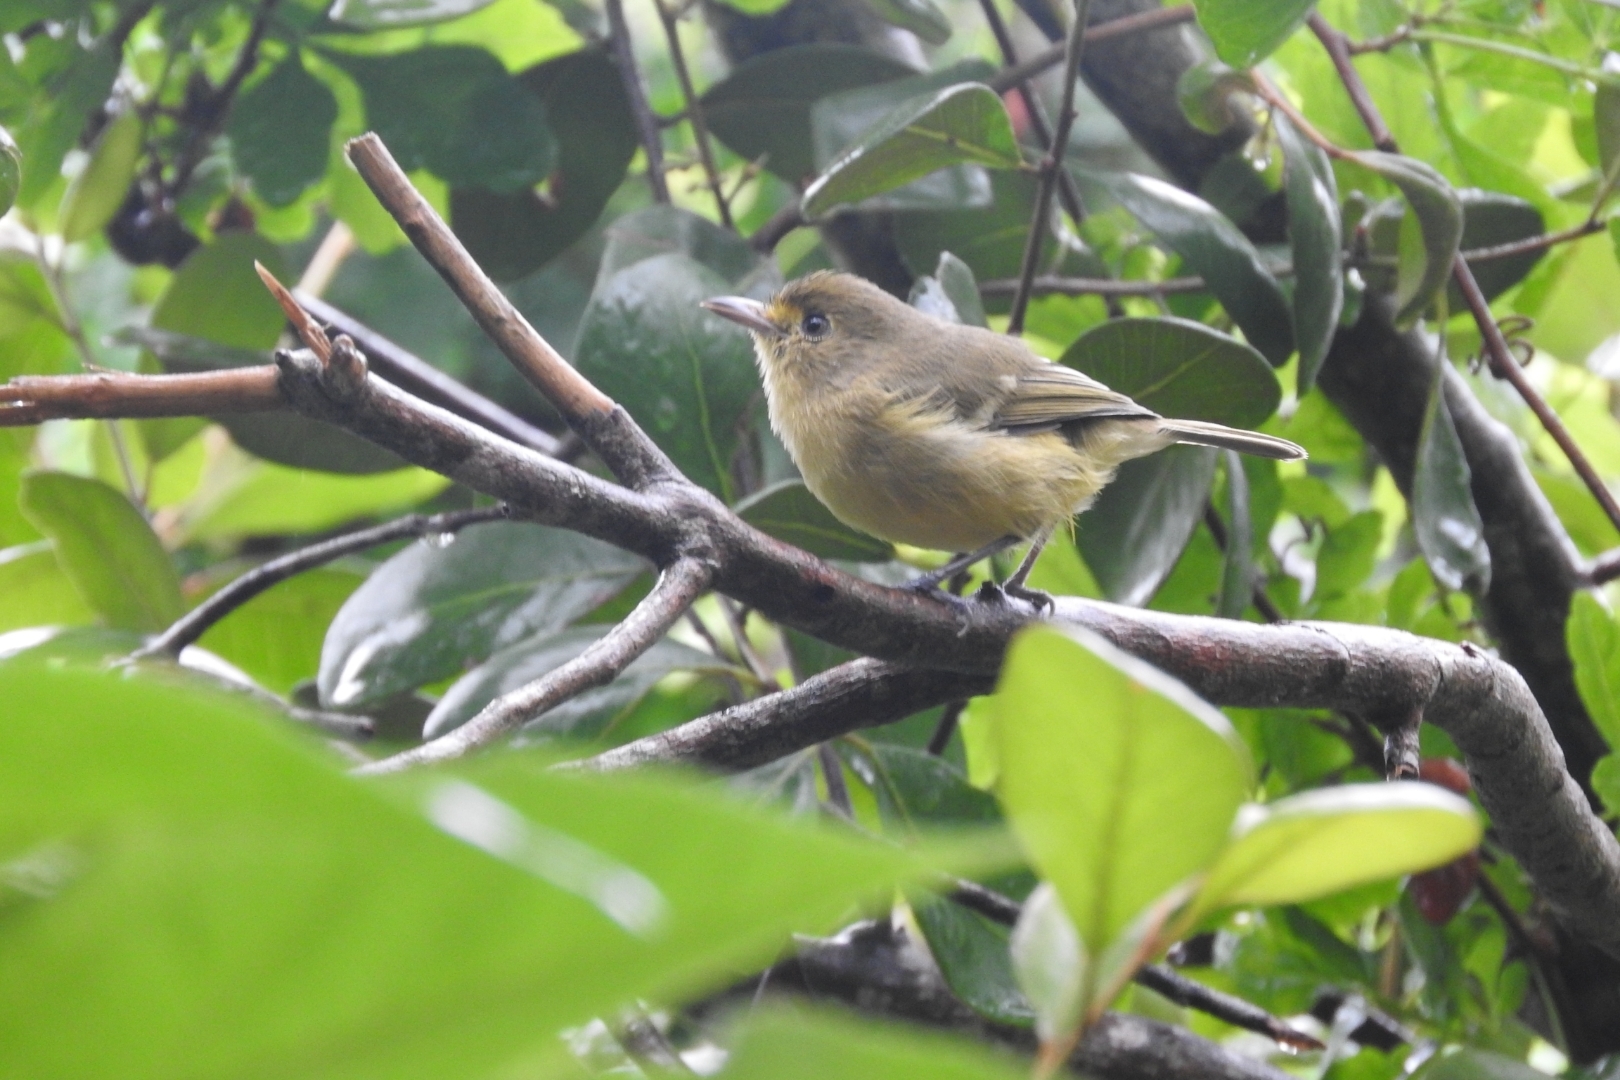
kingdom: Animalia
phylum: Chordata
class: Aves
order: Passeriformes
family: Vireonidae
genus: Vireo
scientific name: Vireo pallens
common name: Mangrove vireo
